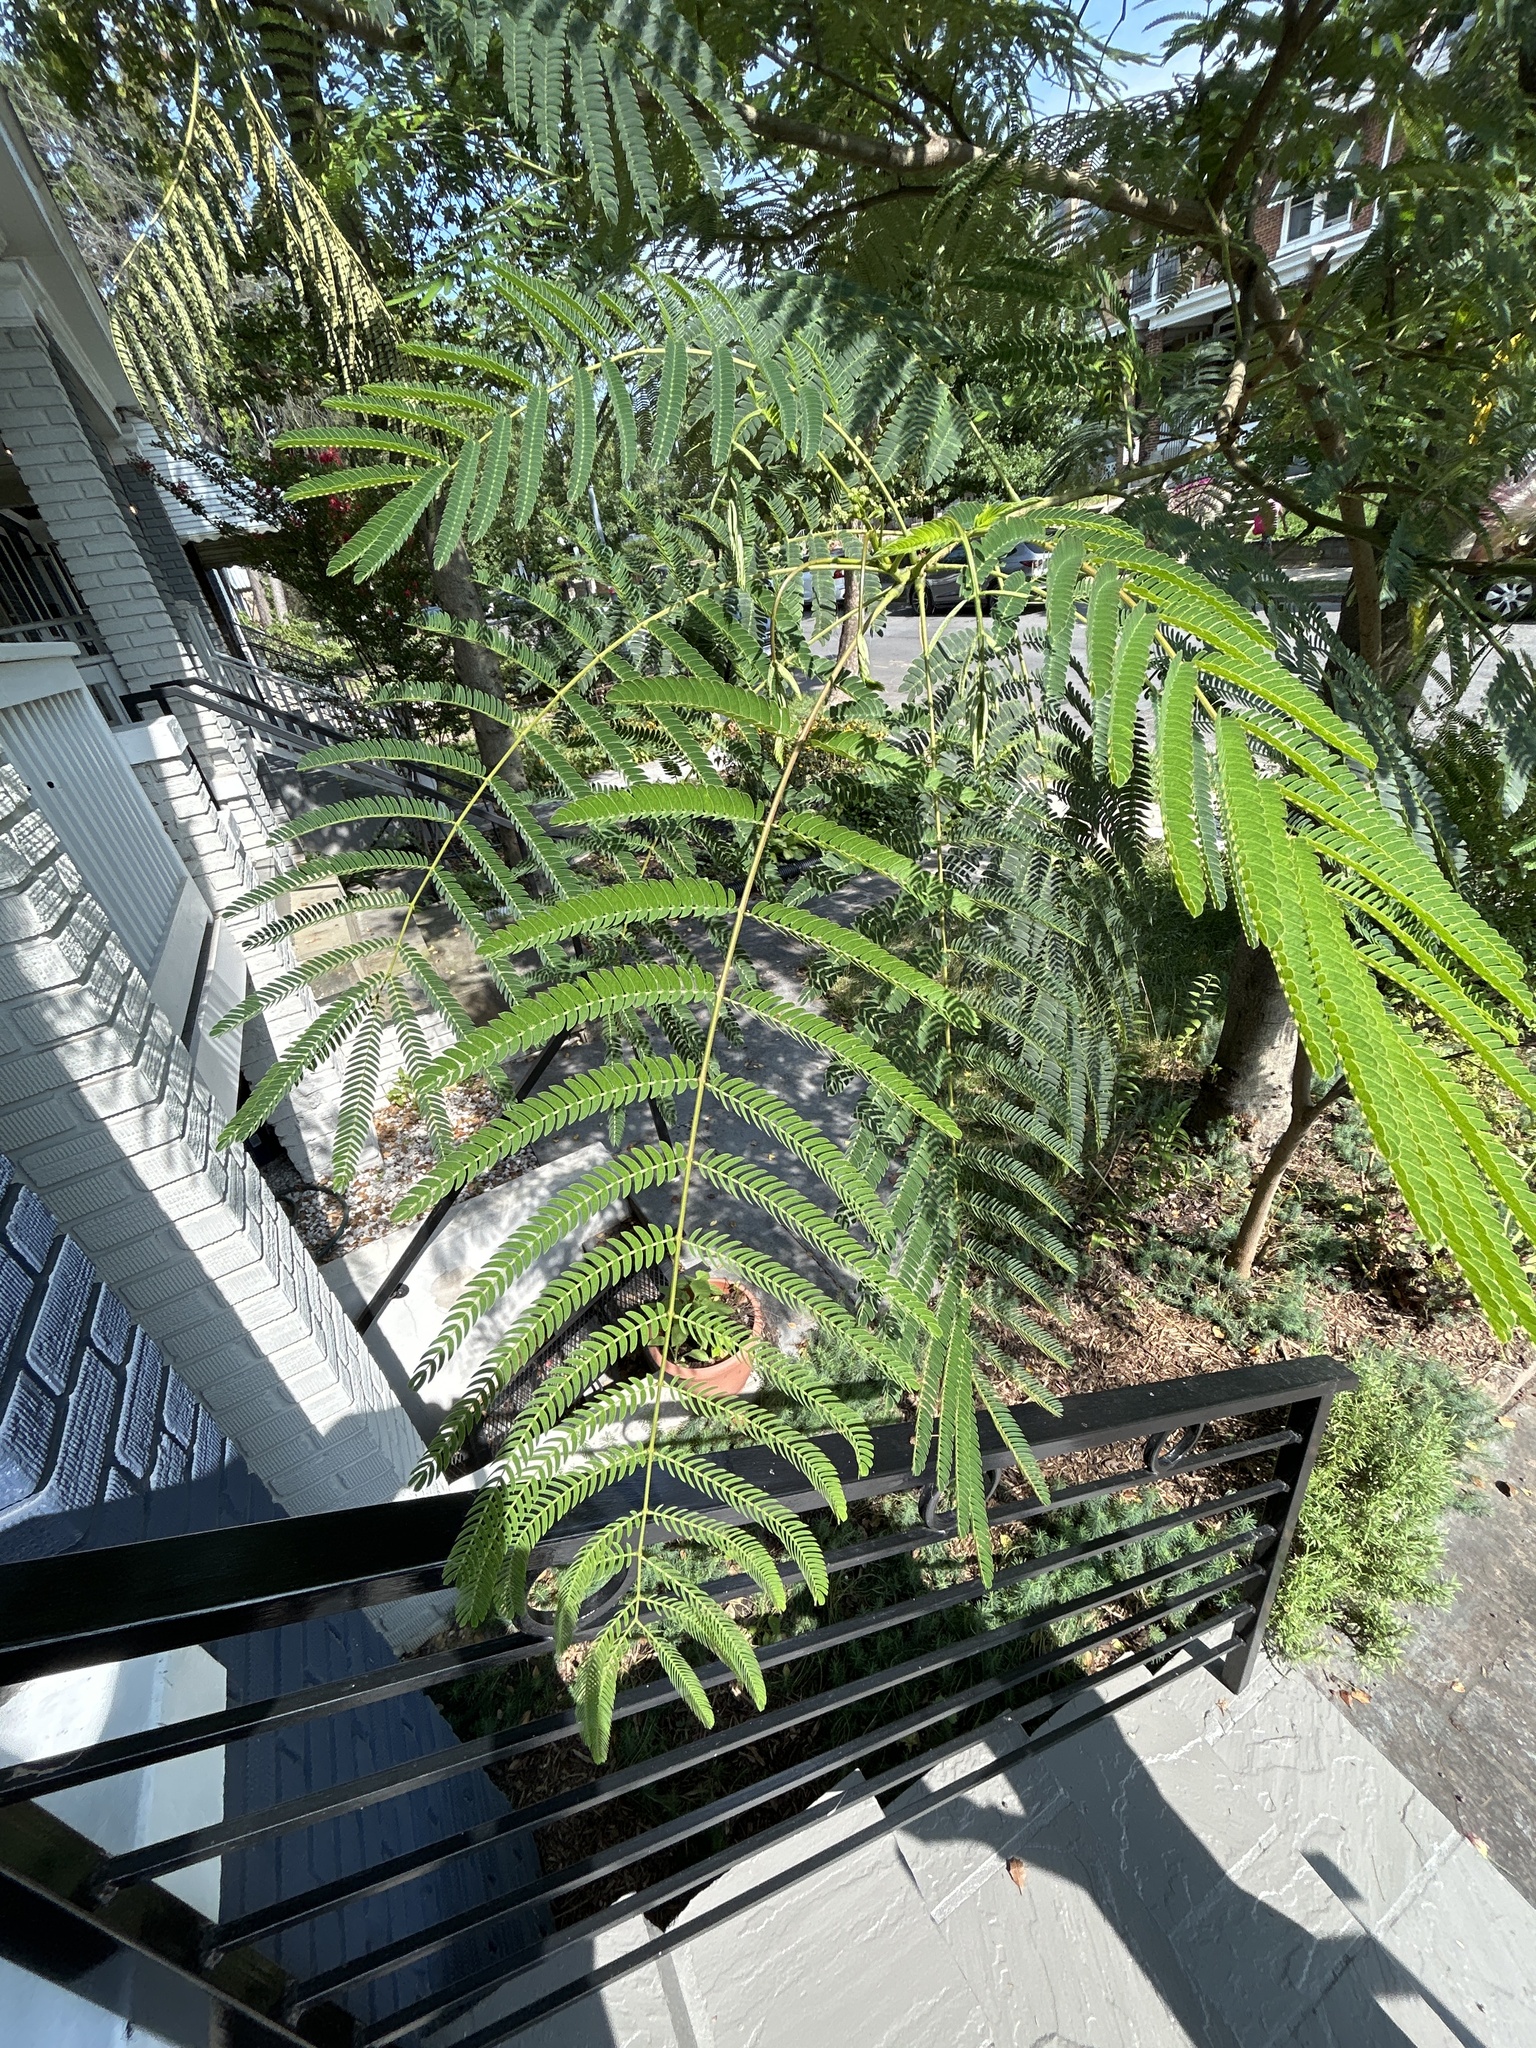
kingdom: Plantae
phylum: Tracheophyta
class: Magnoliopsida
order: Fabales
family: Fabaceae
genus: Albizia
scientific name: Albizia julibrissin
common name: Silktree
